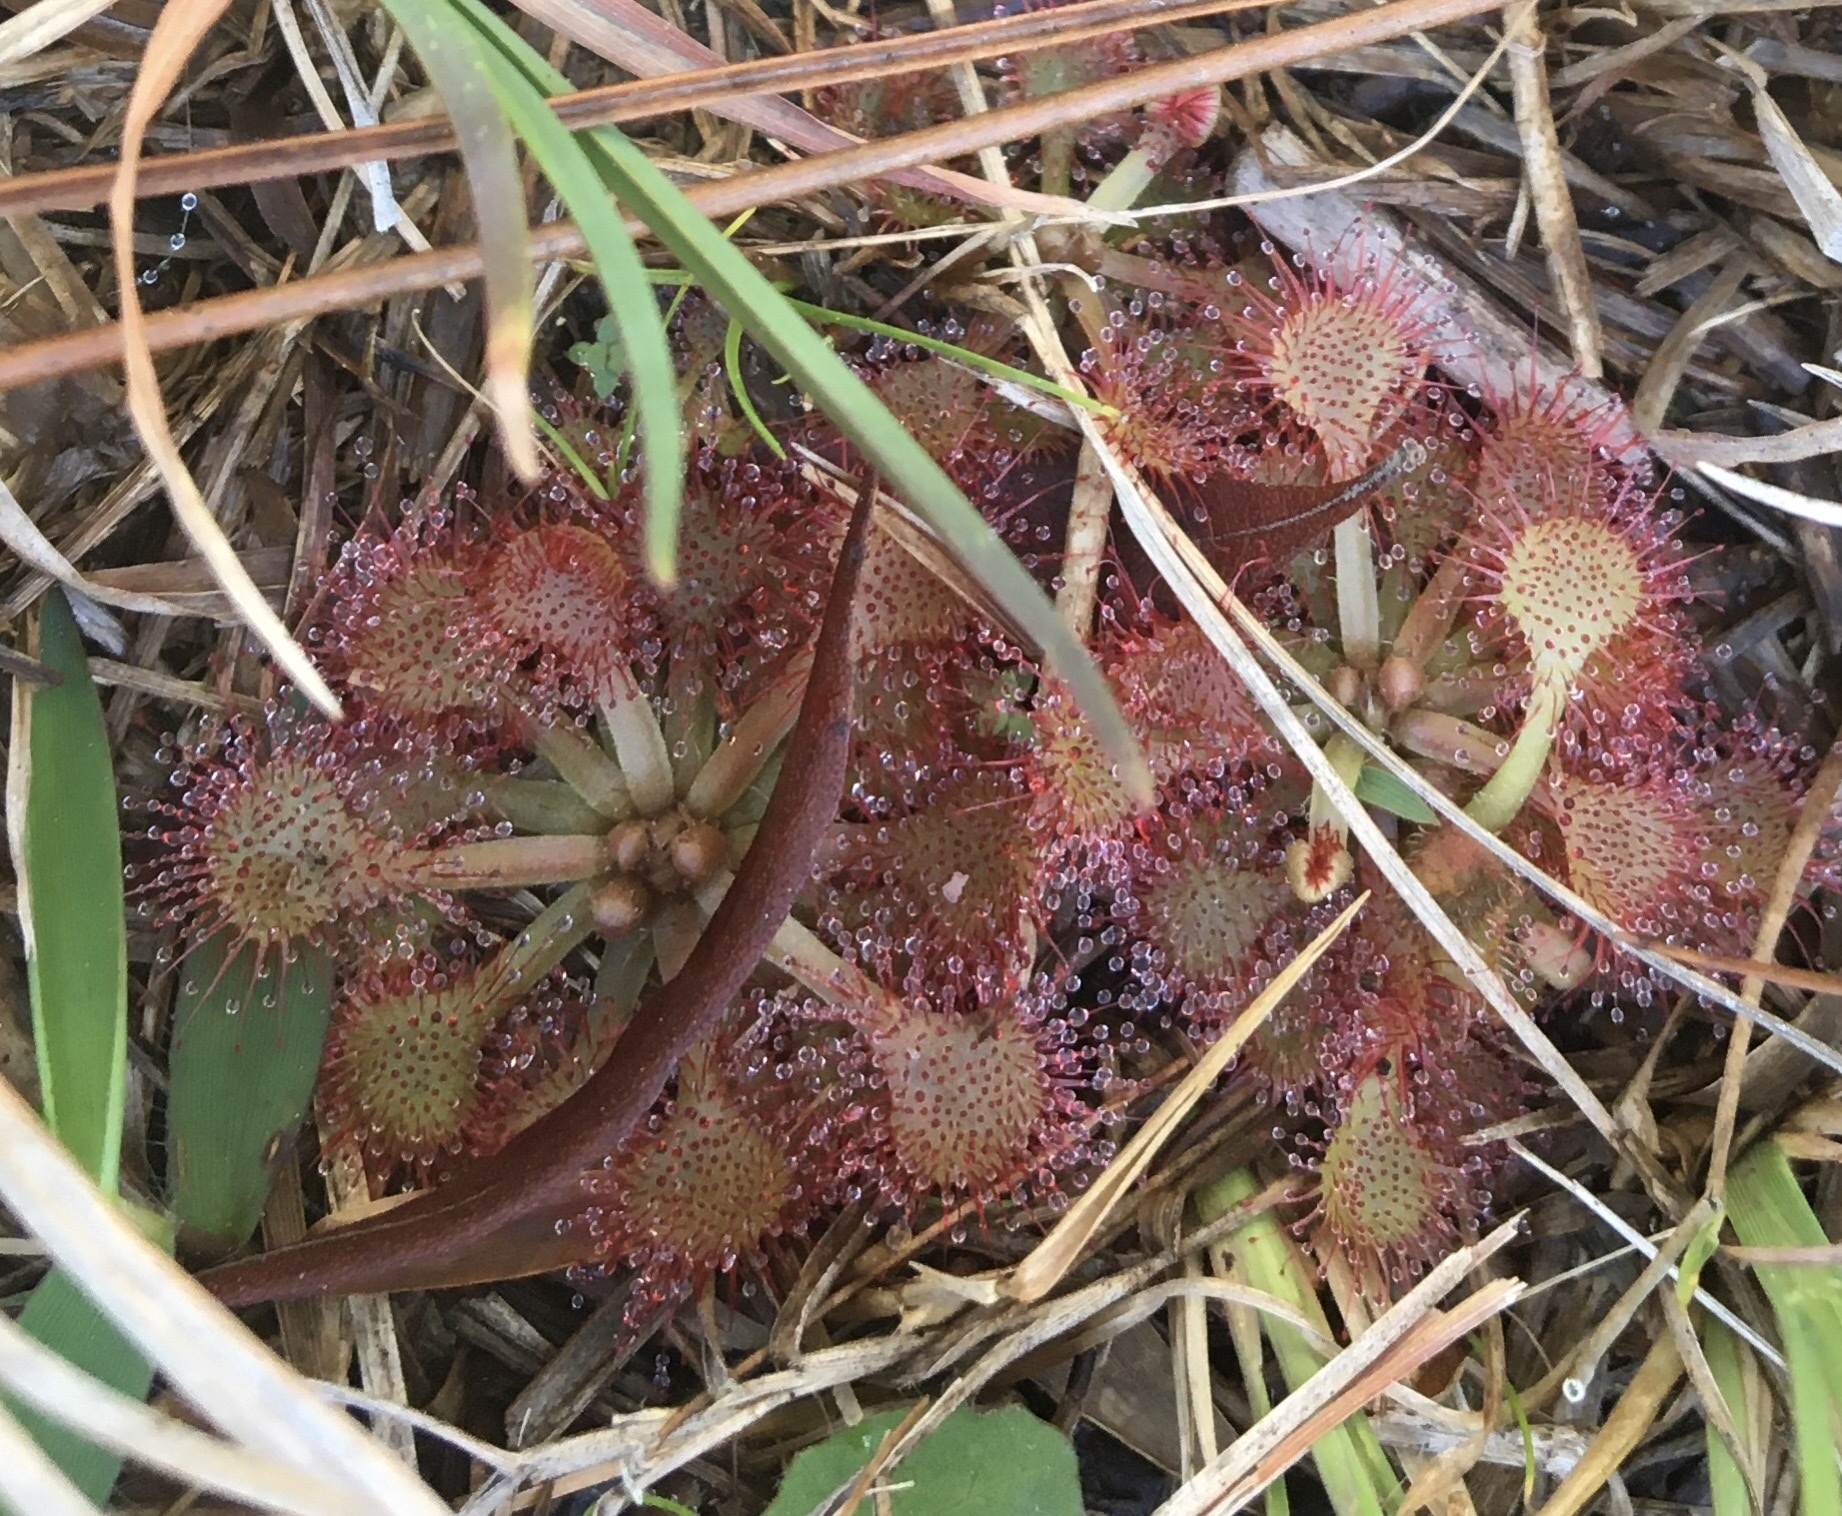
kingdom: Plantae
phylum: Tracheophyta
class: Magnoliopsida
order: Caryophyllales
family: Droseraceae
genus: Drosera
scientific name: Drosera capillaris
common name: Pink sundew
